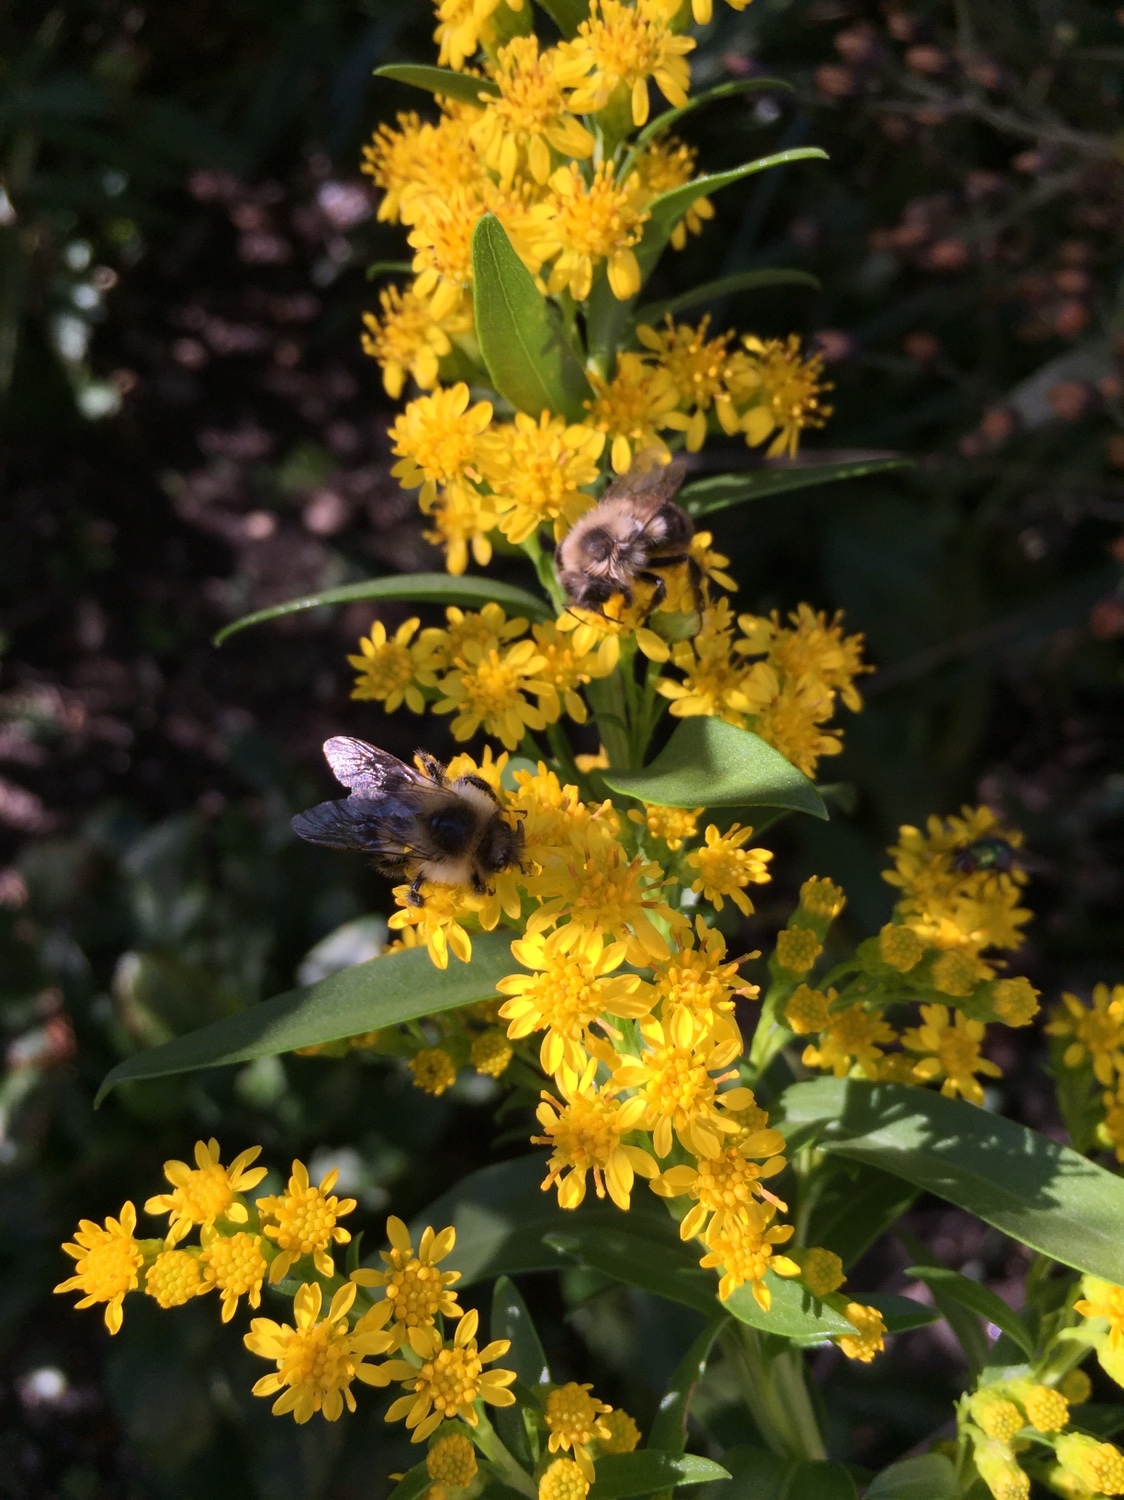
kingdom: Animalia
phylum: Arthropoda
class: Insecta
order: Hymenoptera
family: Apidae
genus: Bombus
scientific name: Bombus impatiens
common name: Common eastern bumble bee
